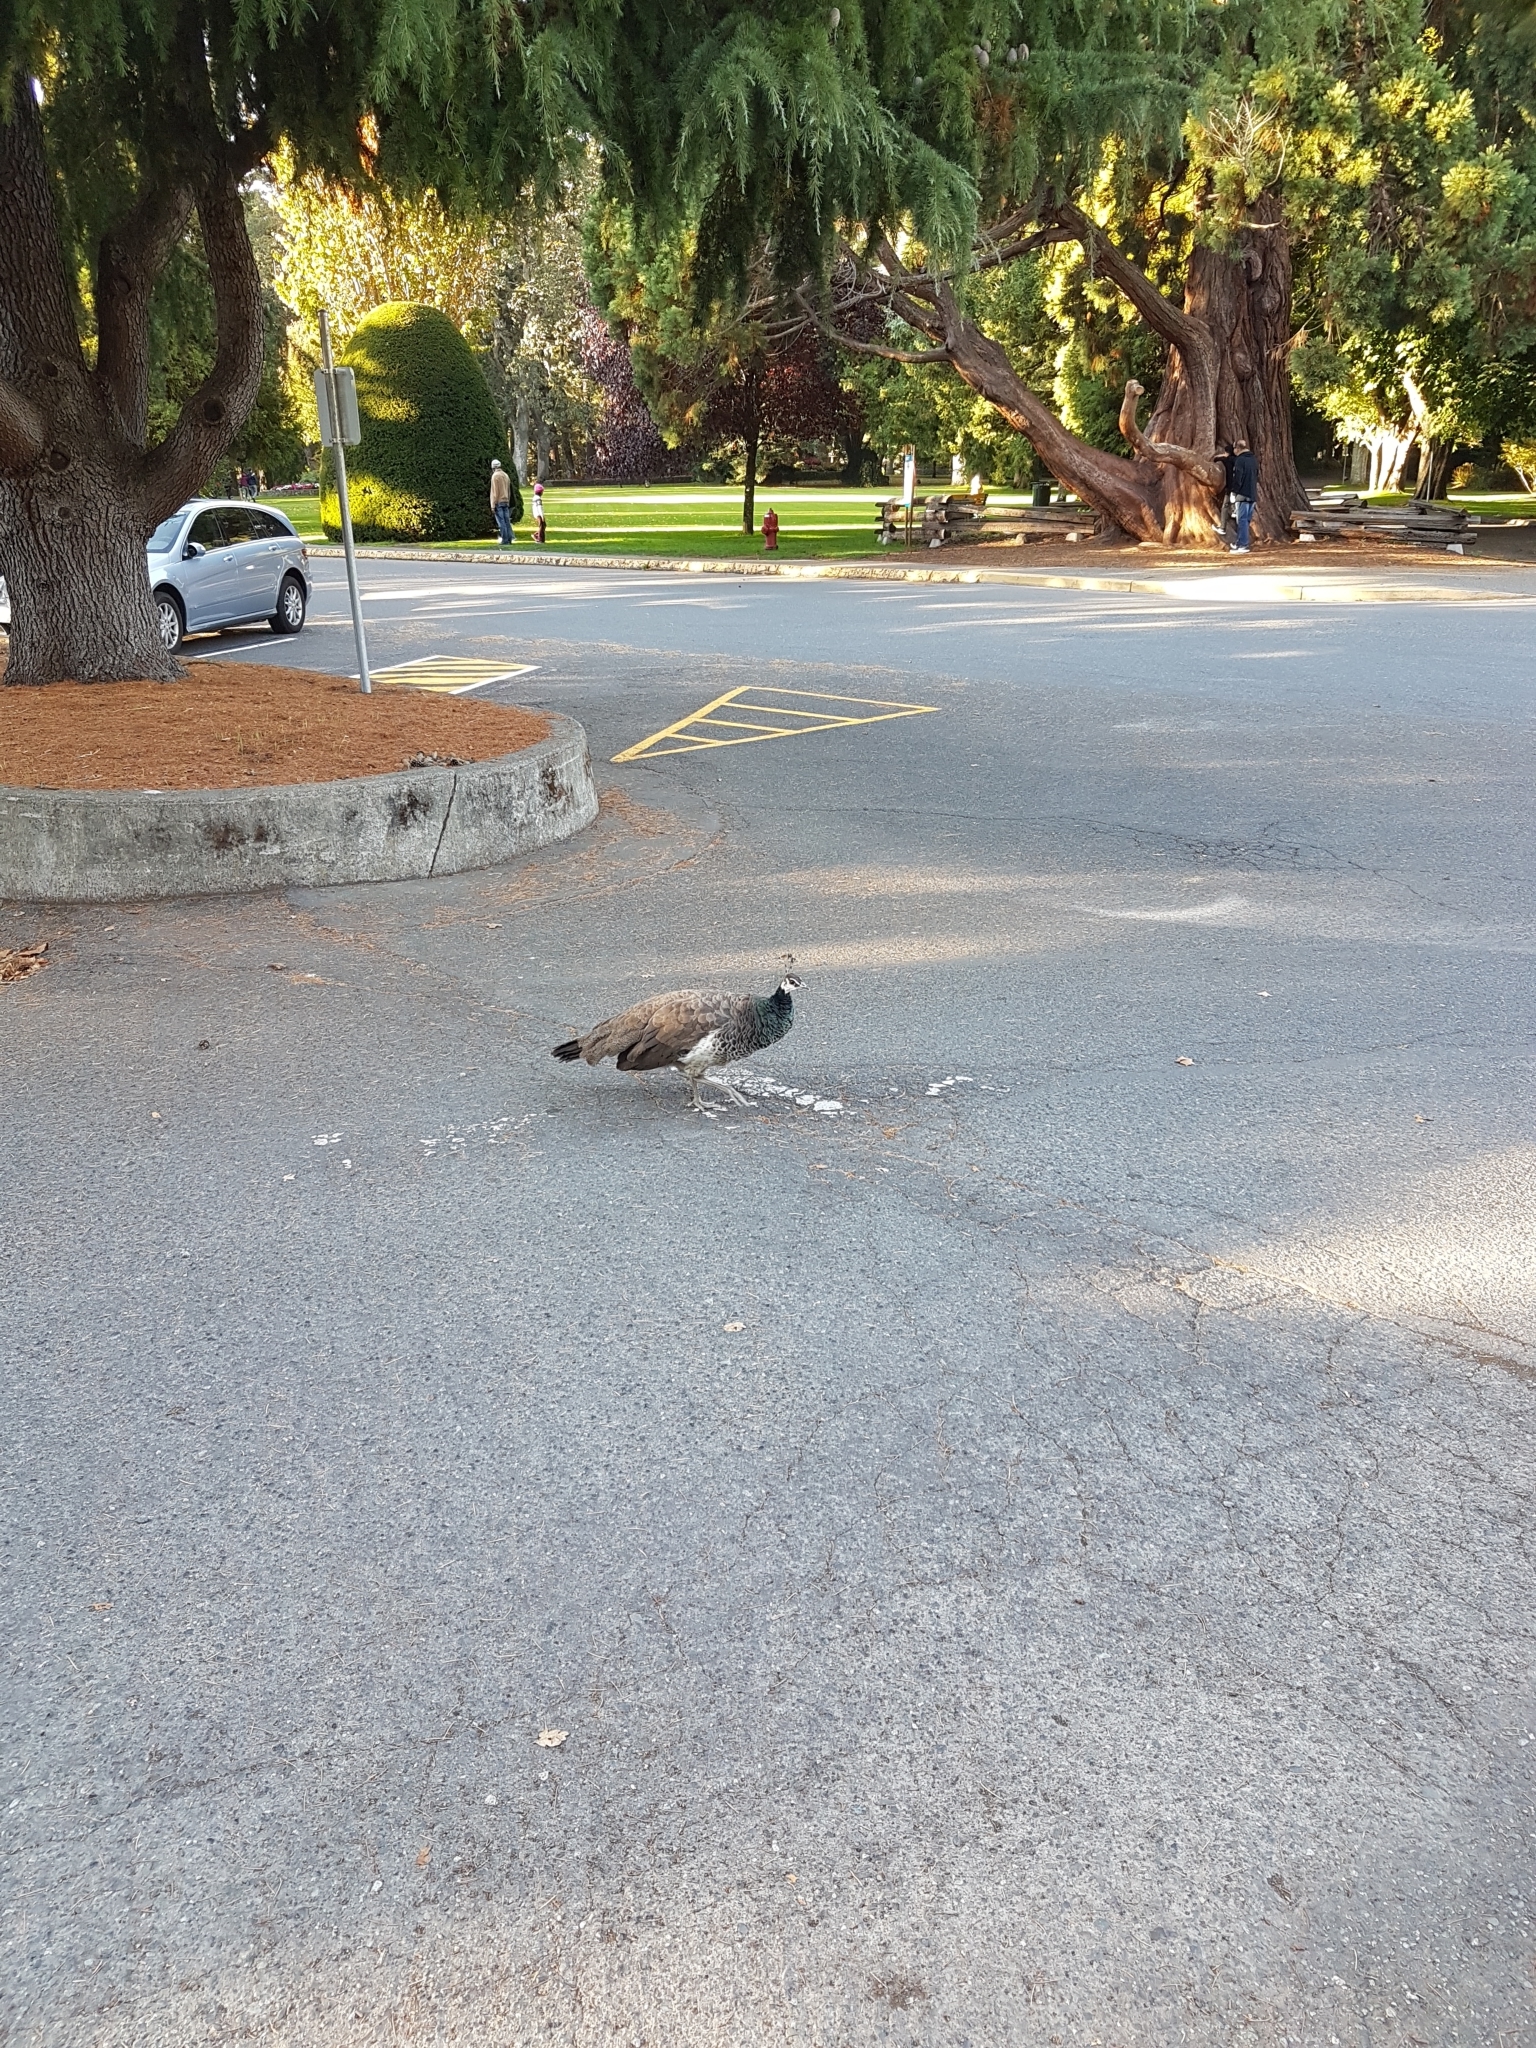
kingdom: Animalia
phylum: Chordata
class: Aves
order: Galliformes
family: Phasianidae
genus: Pavo
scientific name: Pavo cristatus
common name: Indian peafowl
